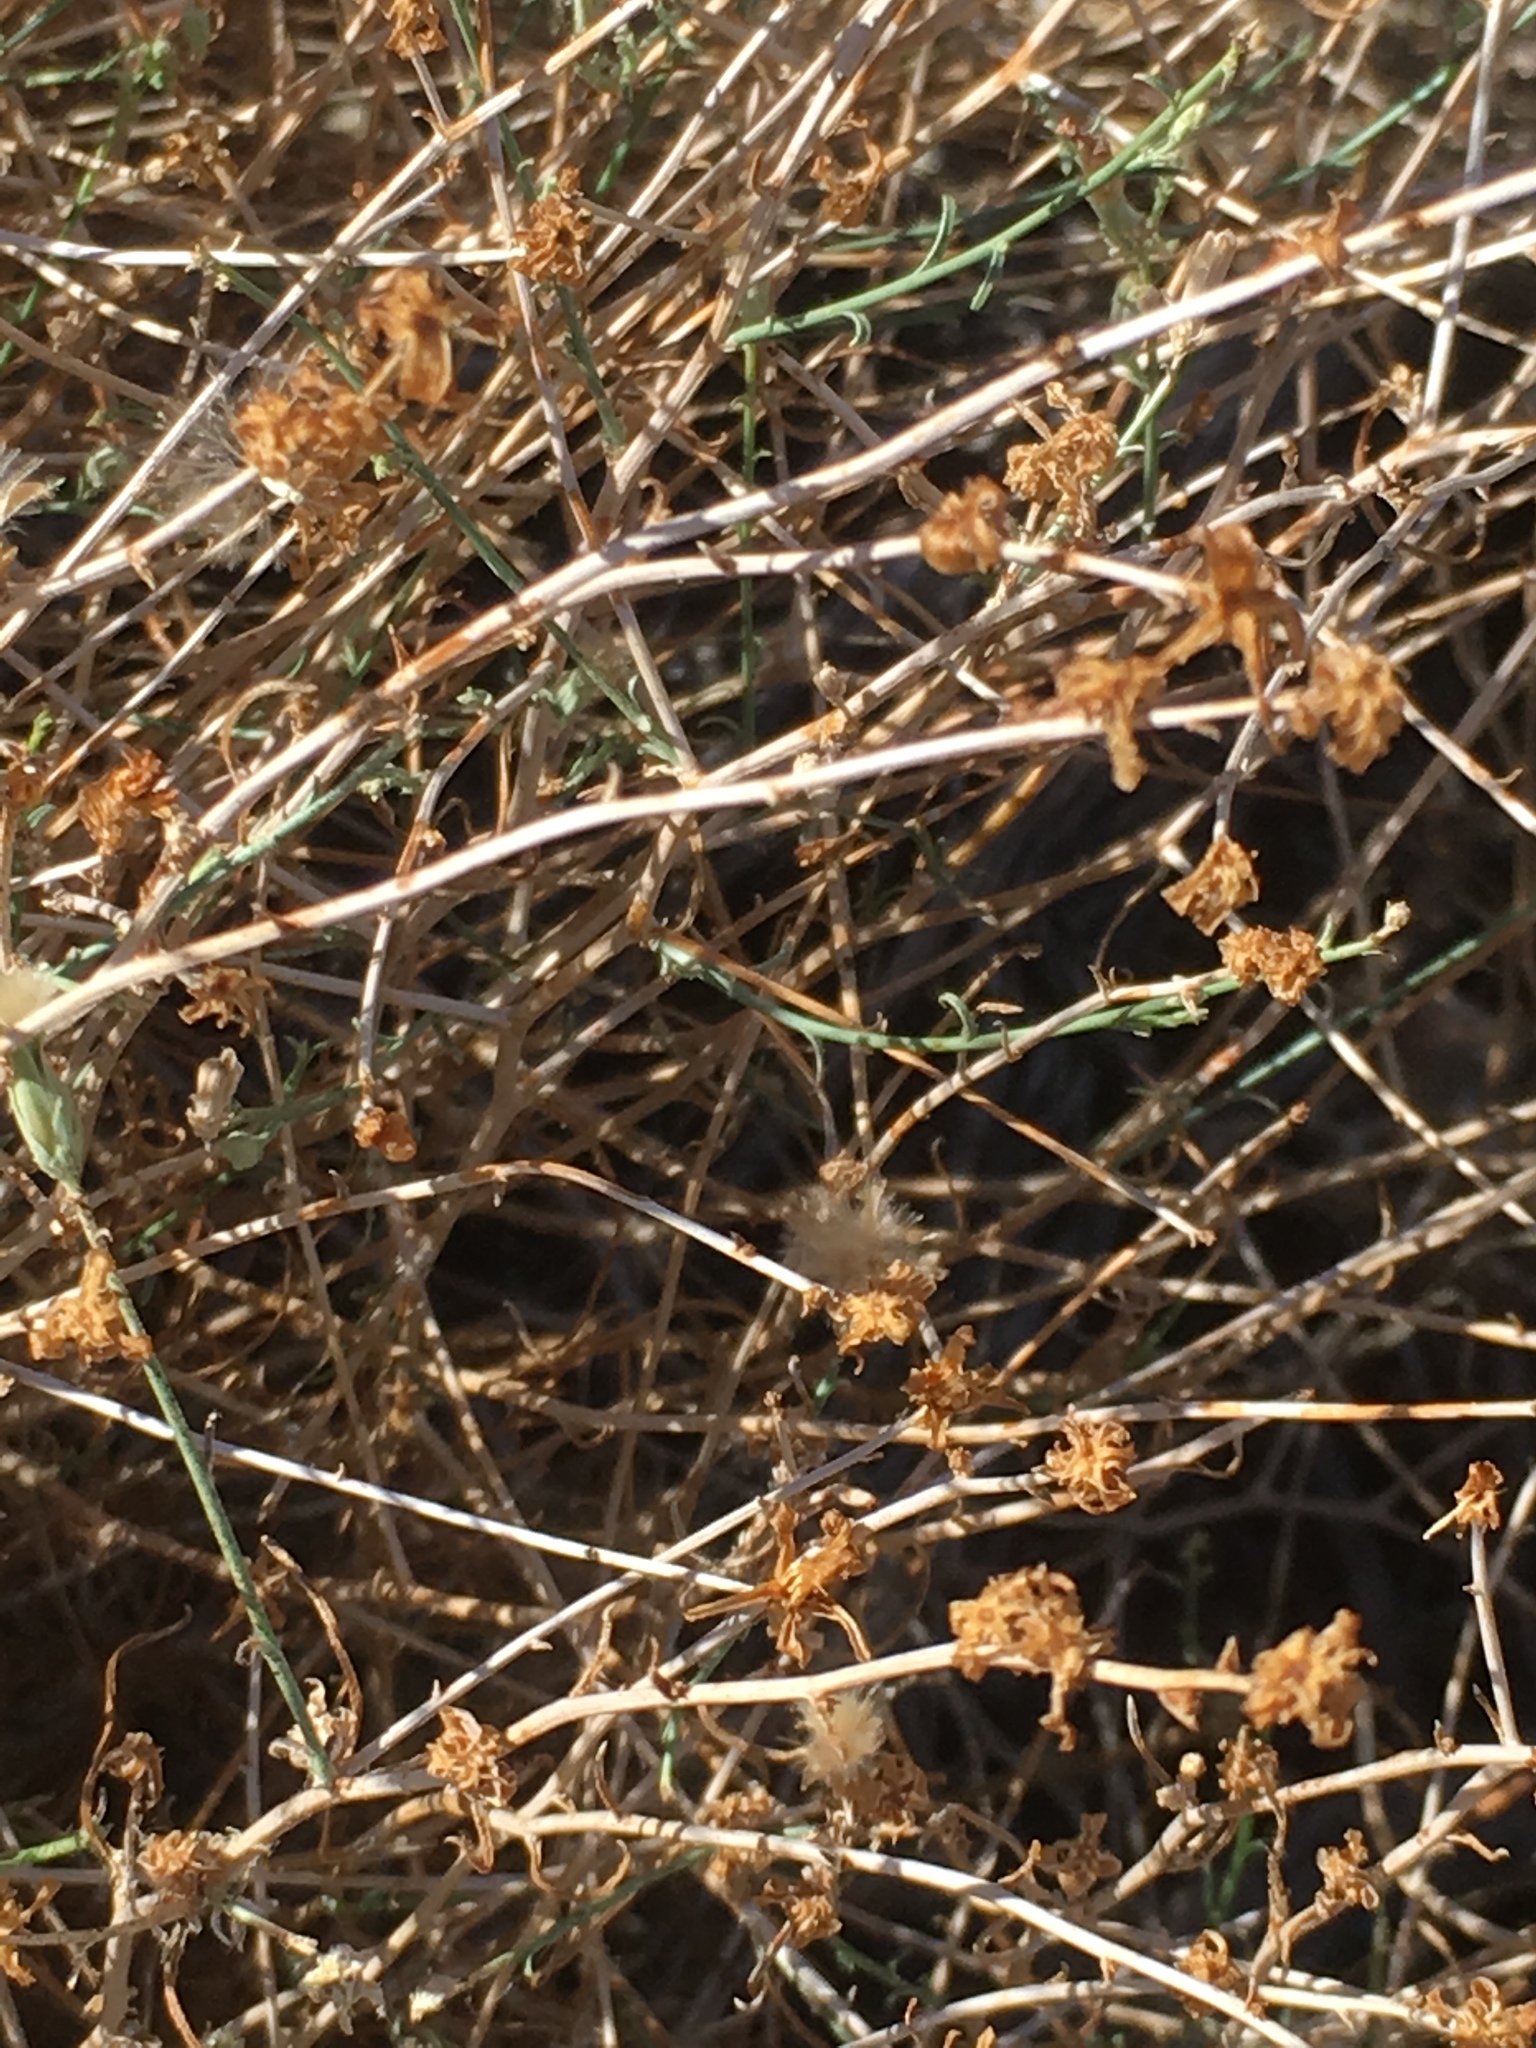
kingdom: Plantae
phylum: Tracheophyta
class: Magnoliopsida
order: Asterales
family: Asteraceae
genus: Stephanomeria
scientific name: Stephanomeria pauciflora
